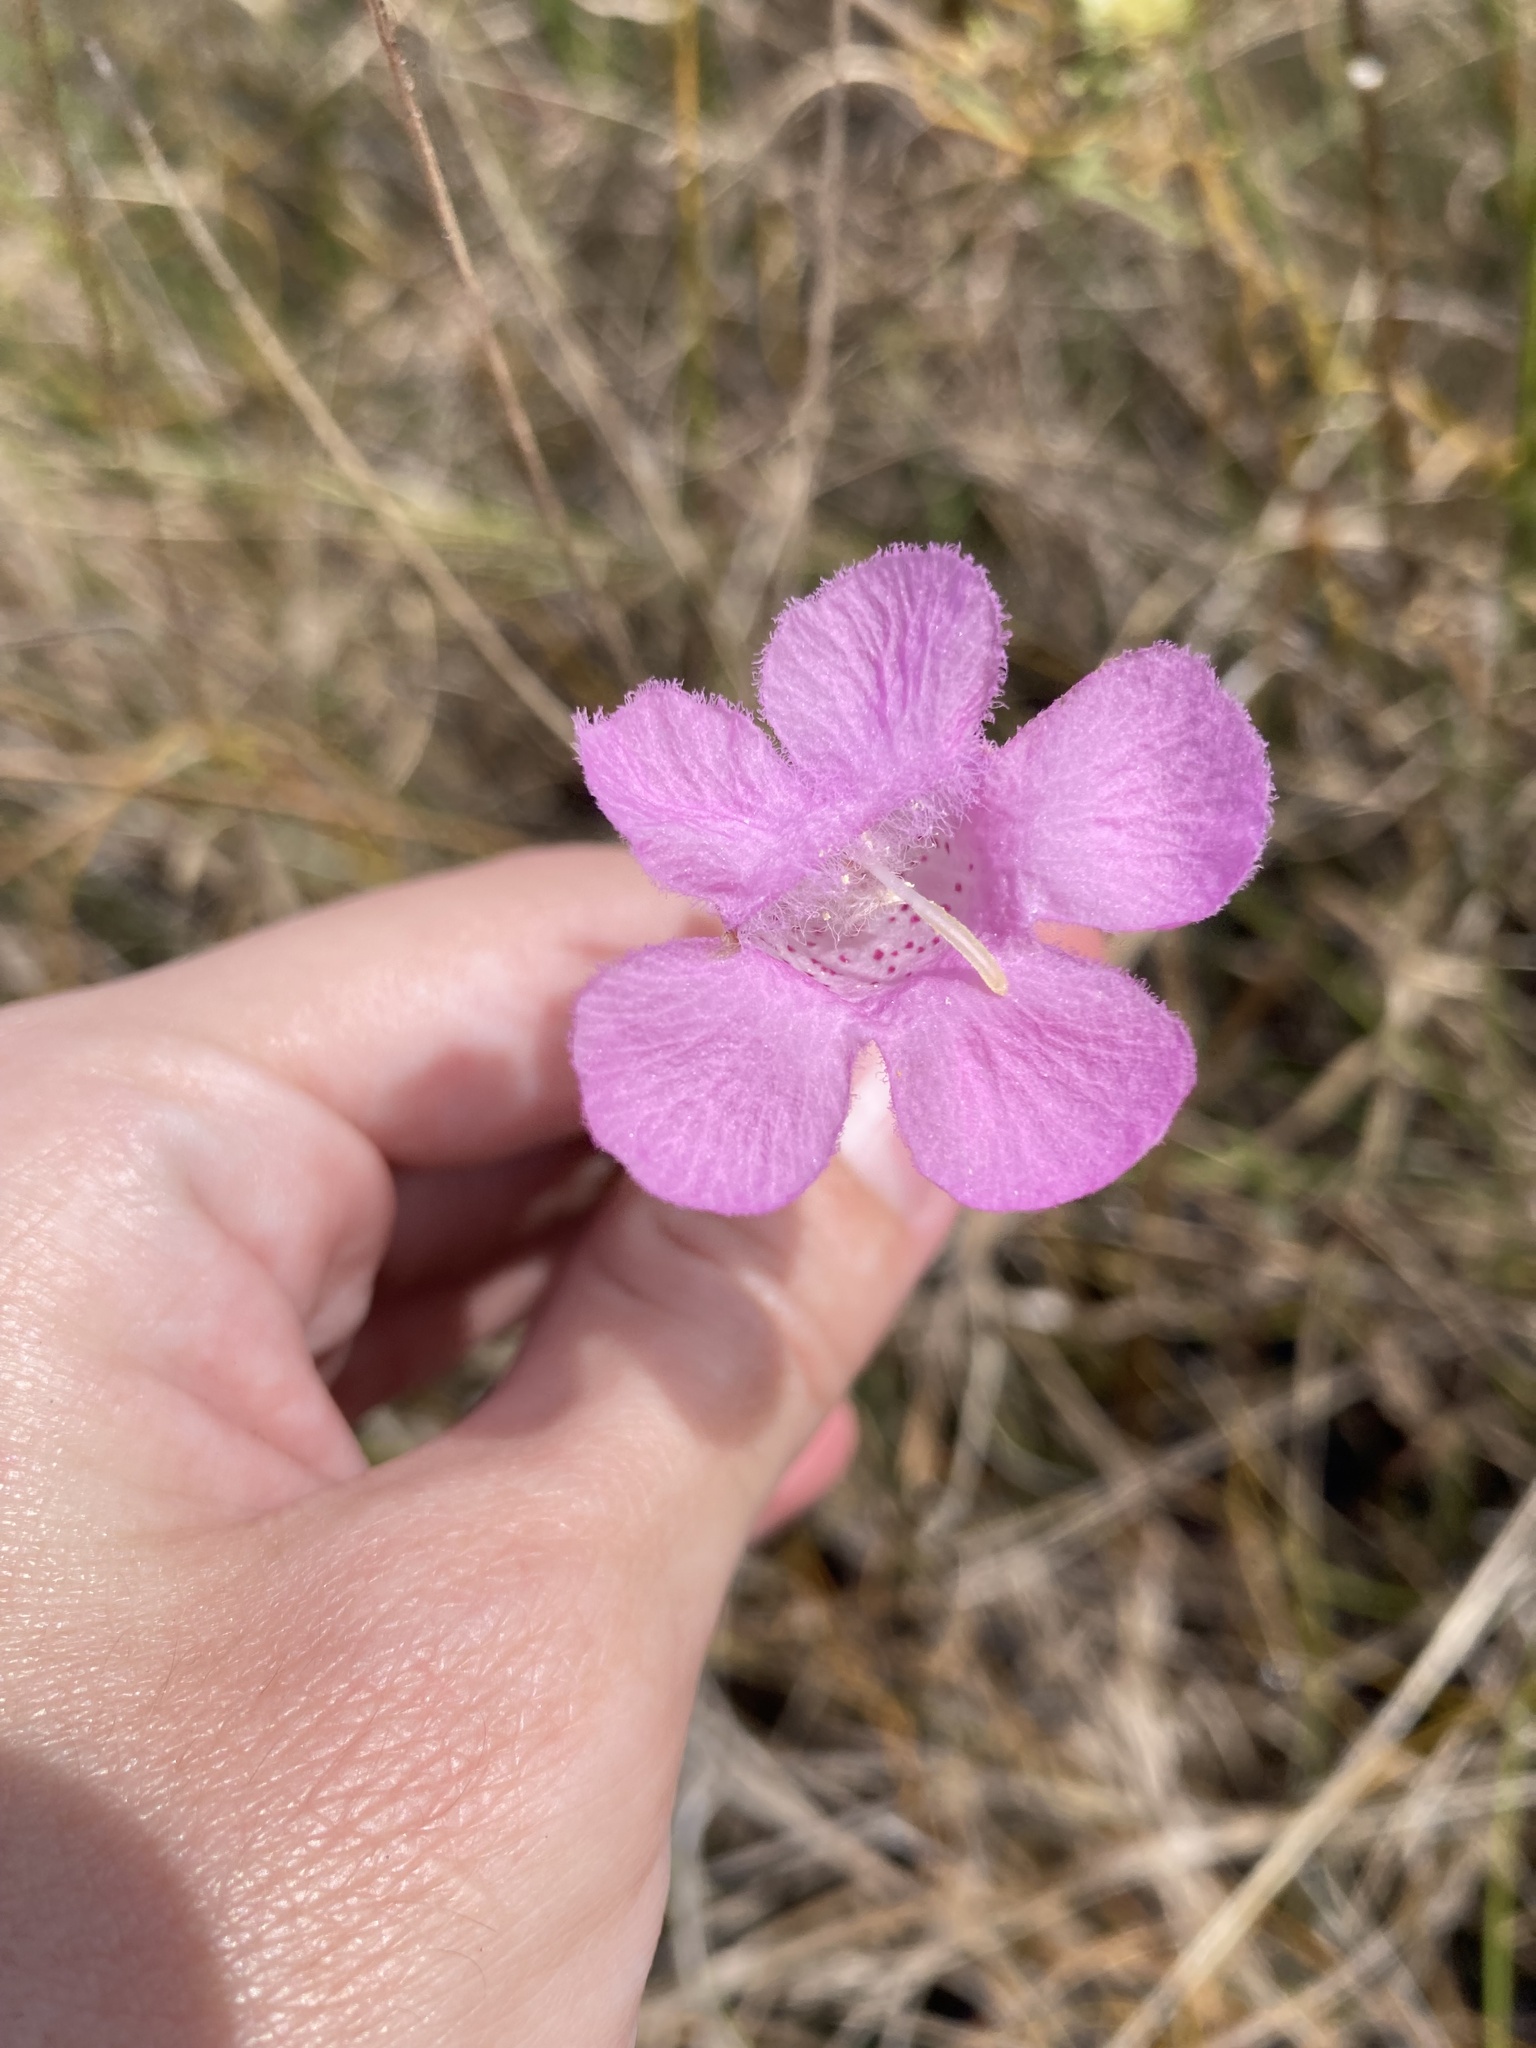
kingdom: Plantae
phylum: Tracheophyta
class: Magnoliopsida
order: Lamiales
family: Orobanchaceae
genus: Agalinis
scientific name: Agalinis linifolia
